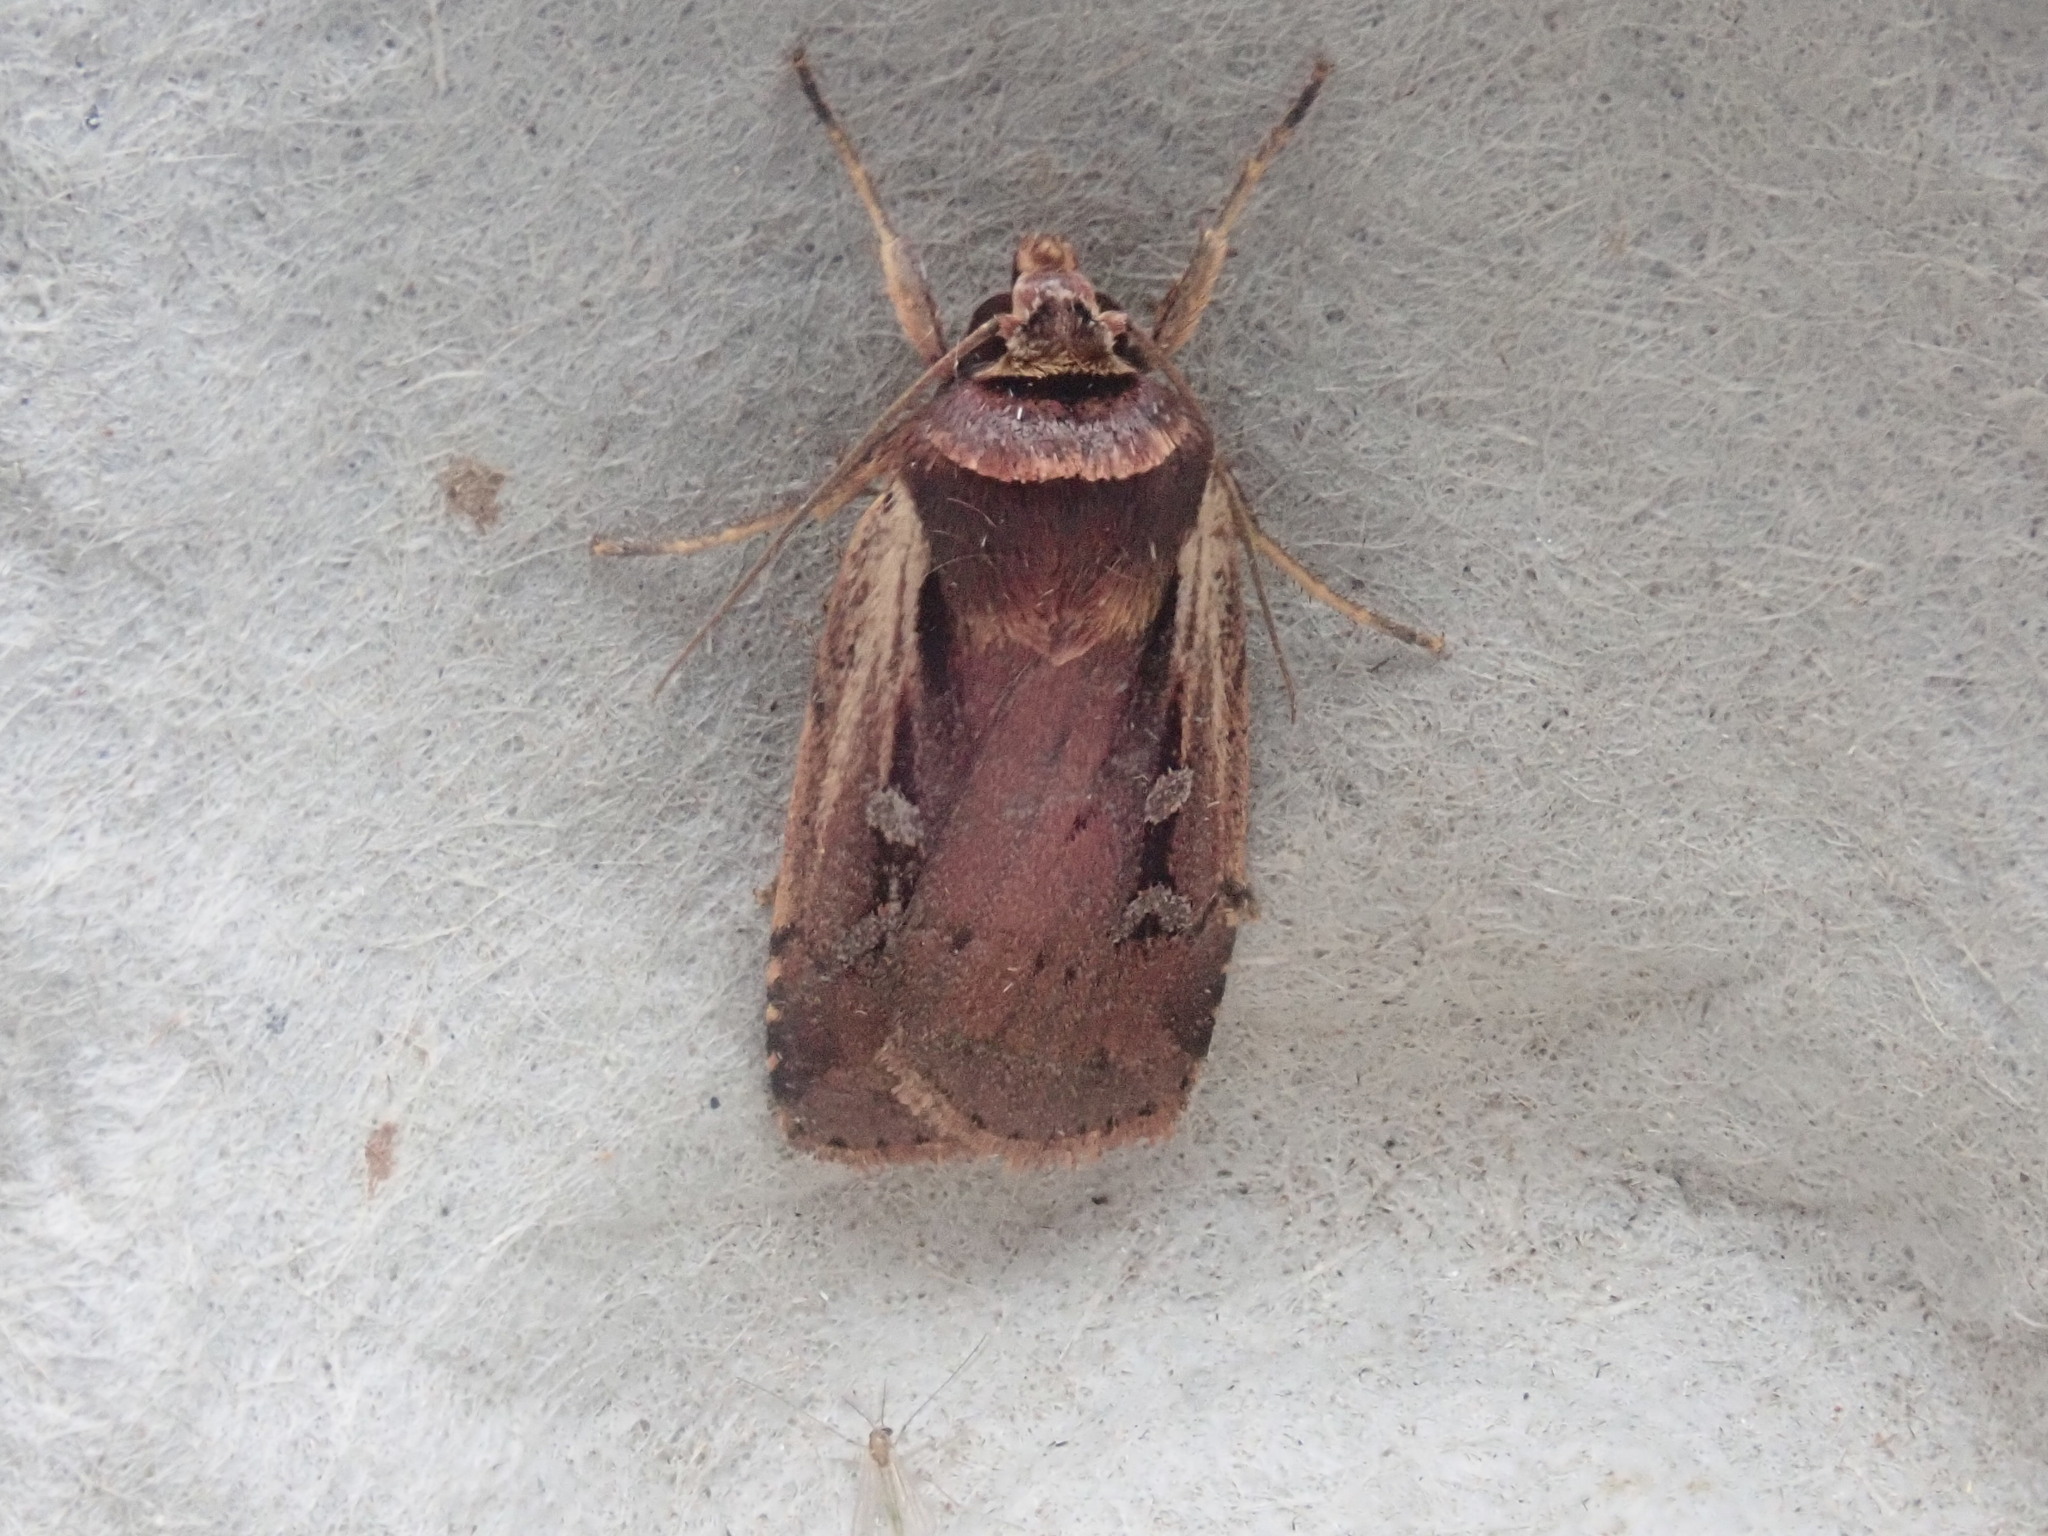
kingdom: Animalia
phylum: Arthropoda
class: Insecta
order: Lepidoptera
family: Noctuidae
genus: Ochropleura
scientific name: Ochropleura implecta
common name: Flame-shouldered dart
